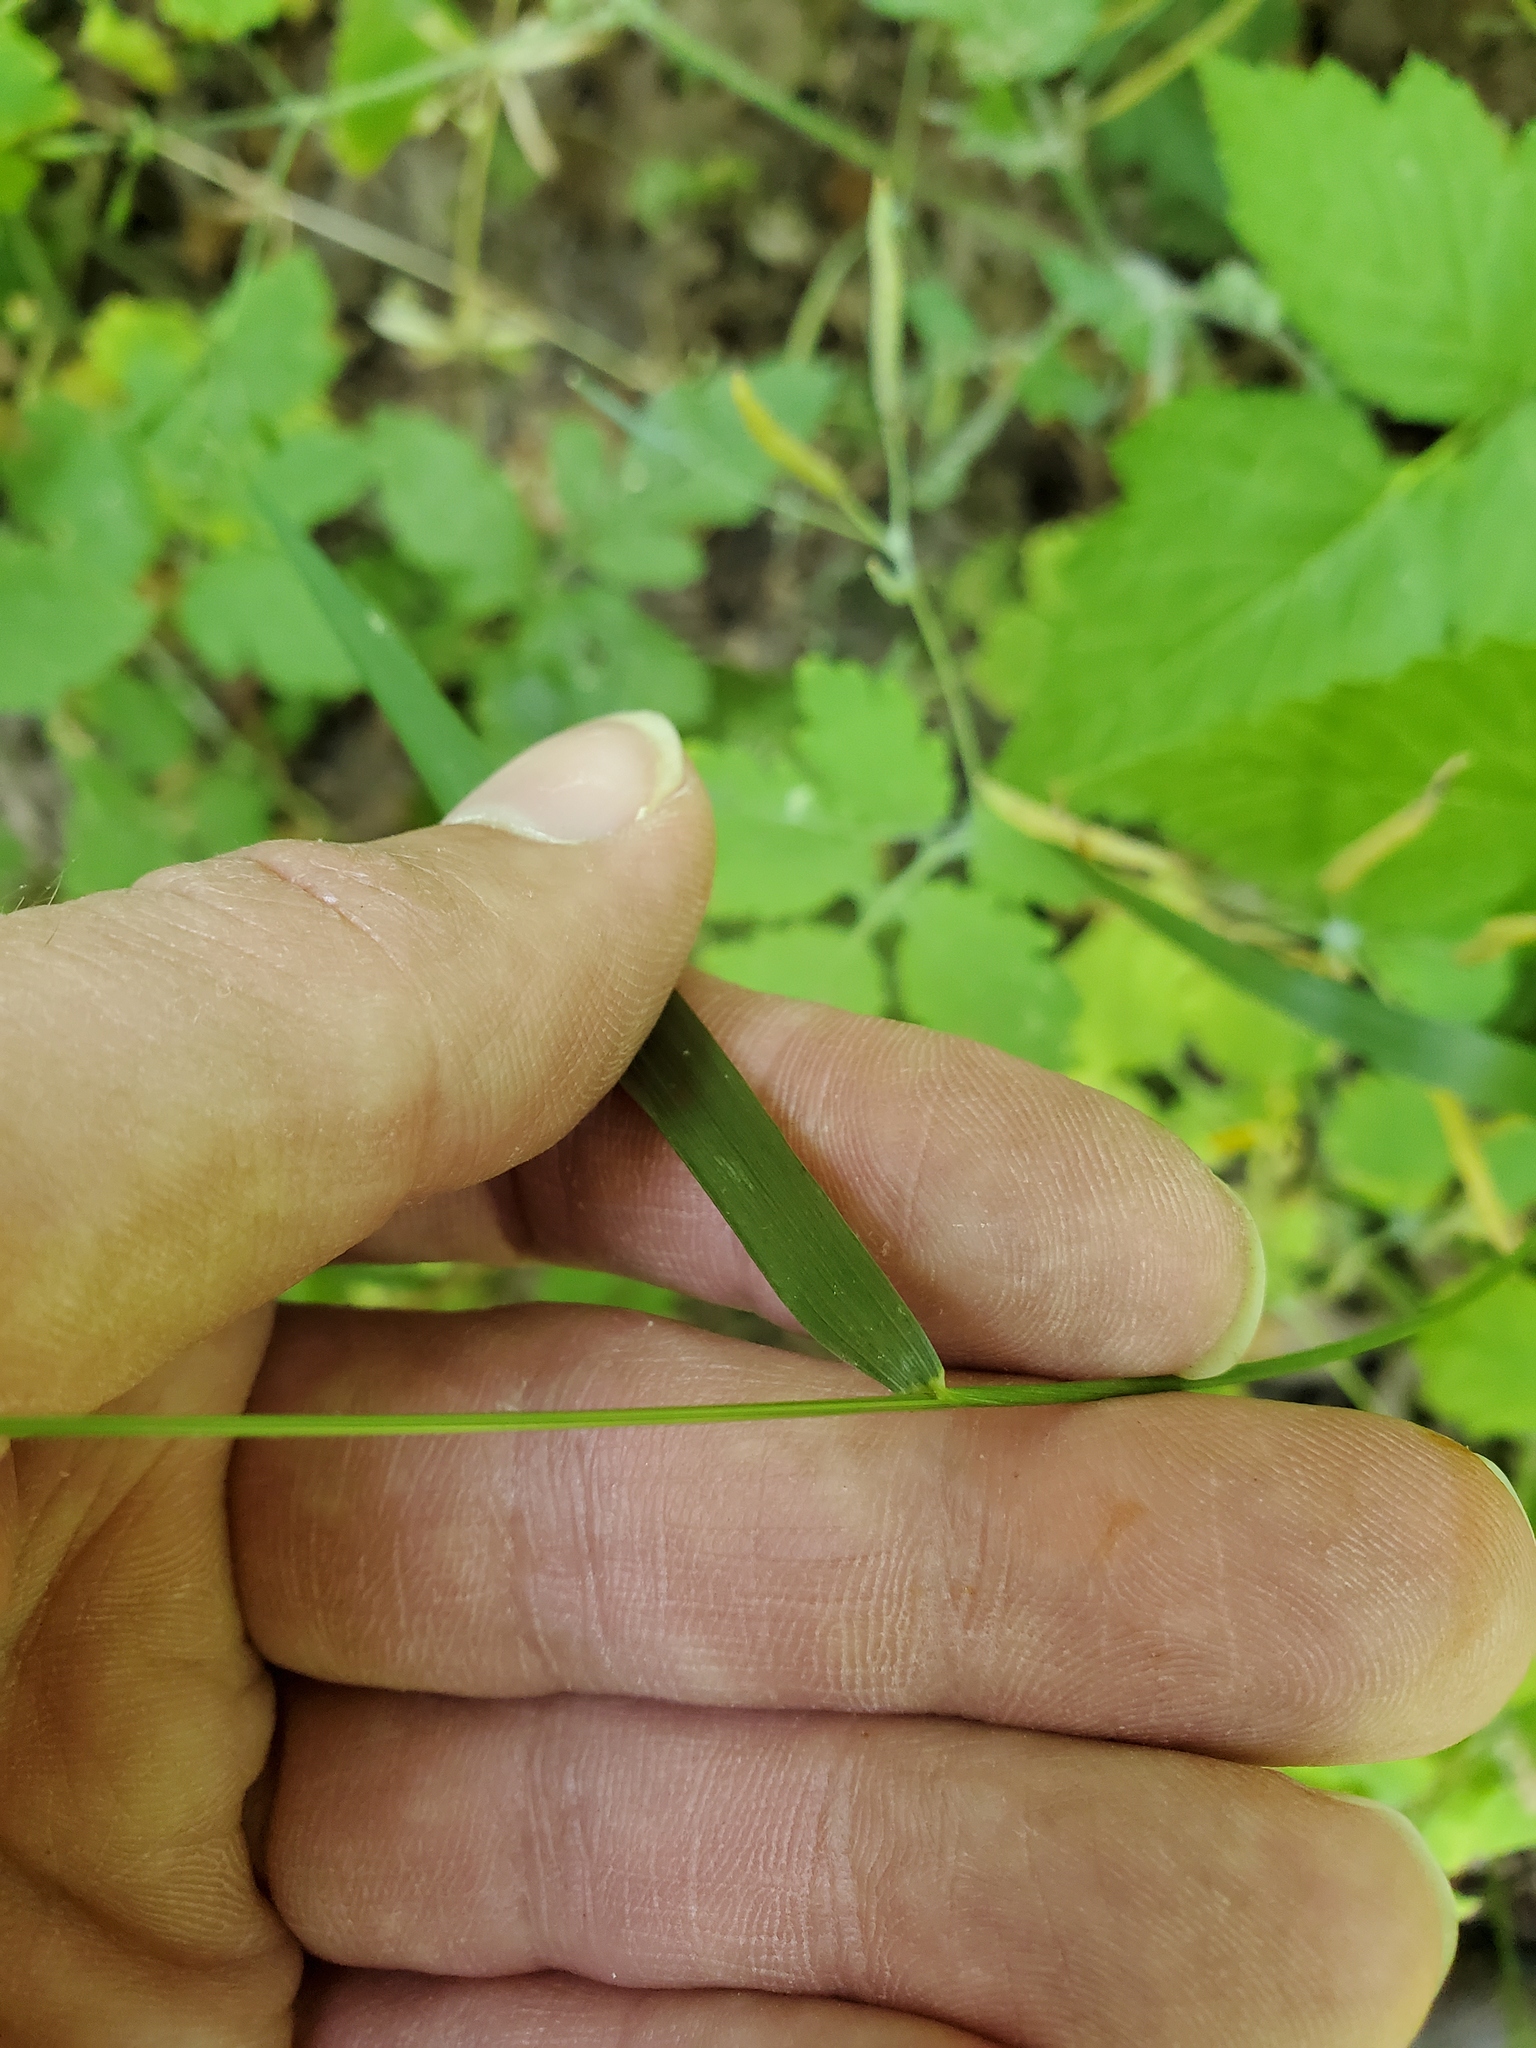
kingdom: Plantae
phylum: Tracheophyta
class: Liliopsida
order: Poales
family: Poaceae
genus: Festuca
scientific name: Festuca subverticillata
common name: Nodding fescue
